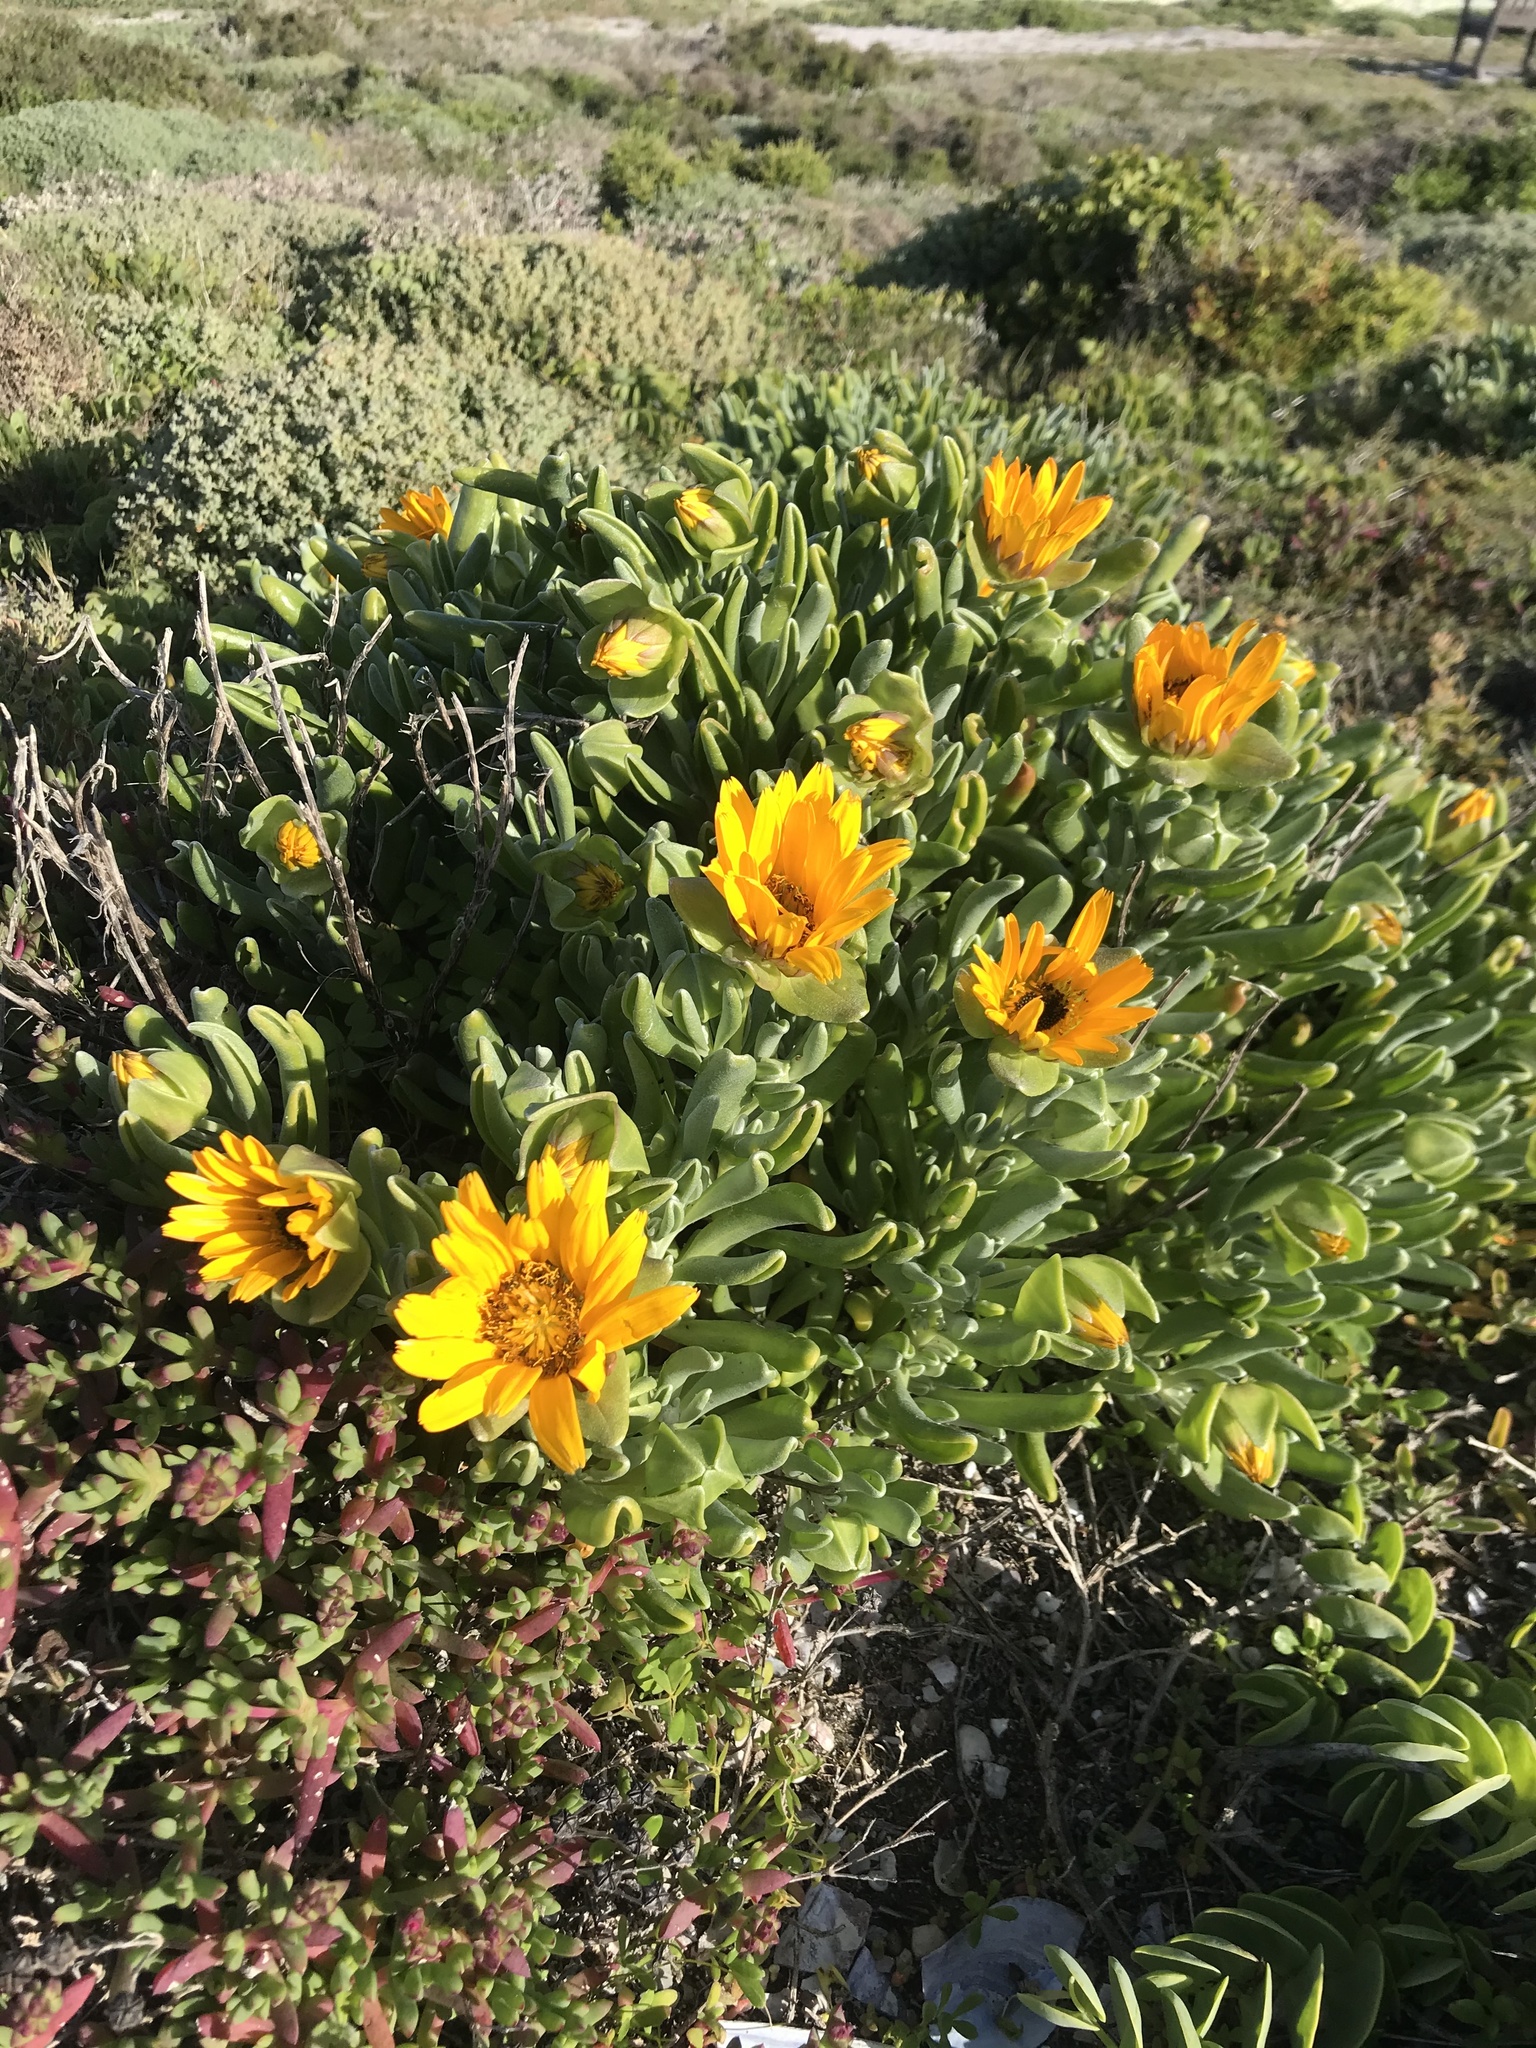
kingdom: Plantae
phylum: Tracheophyta
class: Magnoliopsida
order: Asterales
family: Asteraceae
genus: Didelta
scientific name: Didelta carnosa
